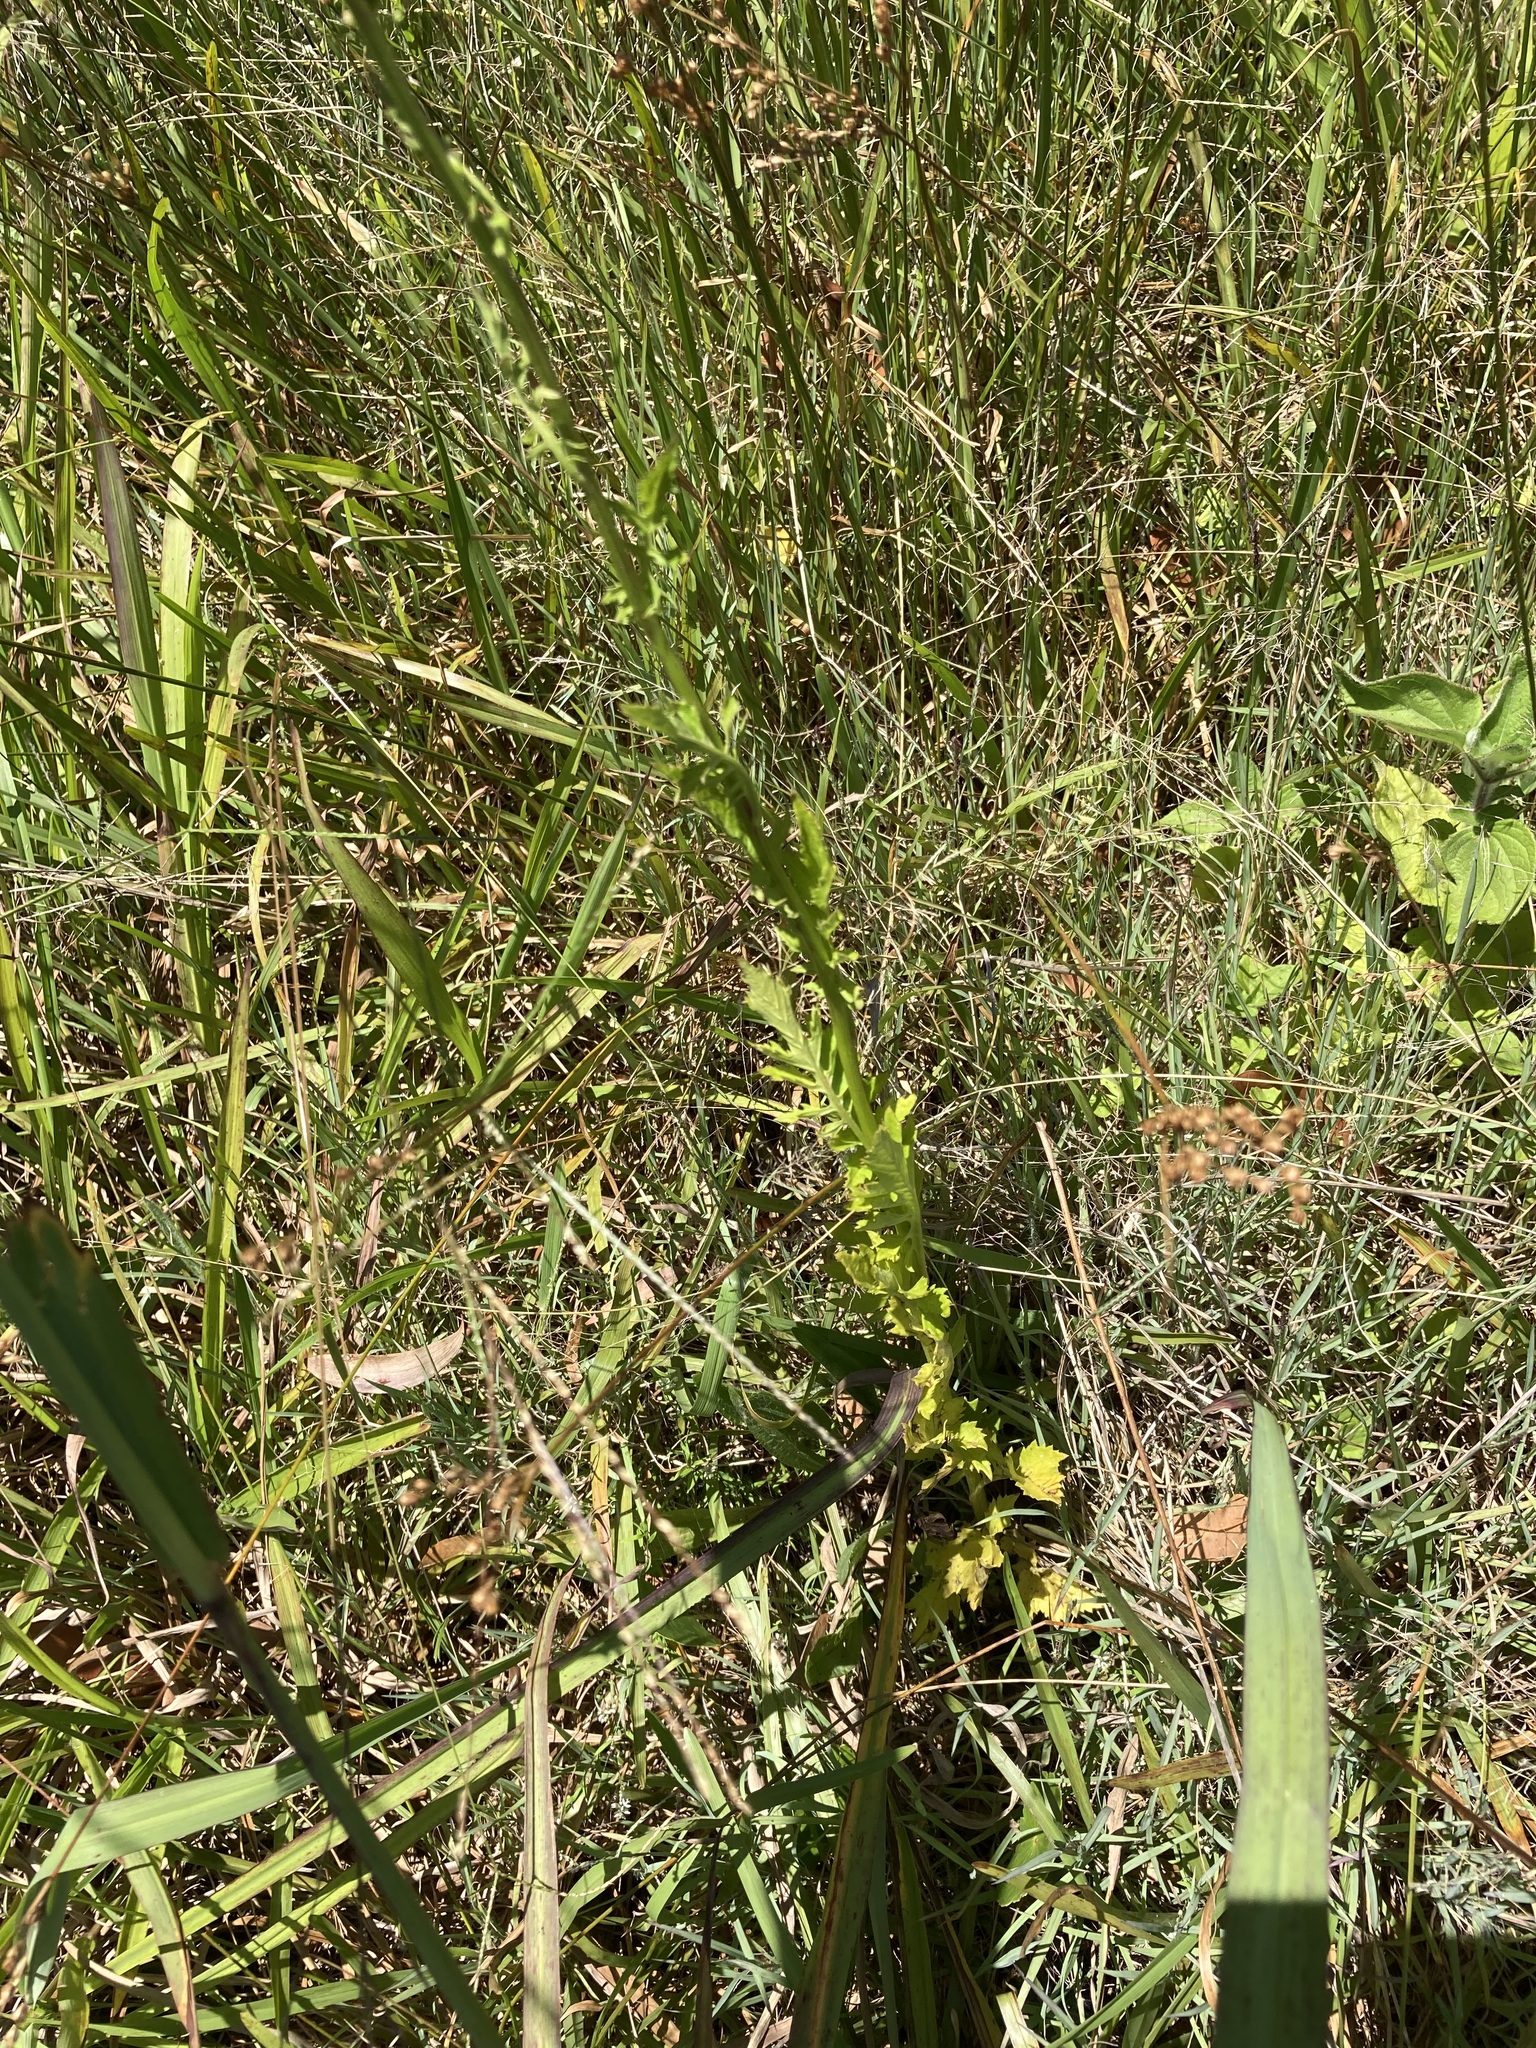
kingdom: Plantae
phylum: Tracheophyta
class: Magnoliopsida
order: Asterales
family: Asteraceae
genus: Erechtites
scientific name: Erechtites valerianifolius
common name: Tropical burnweed
